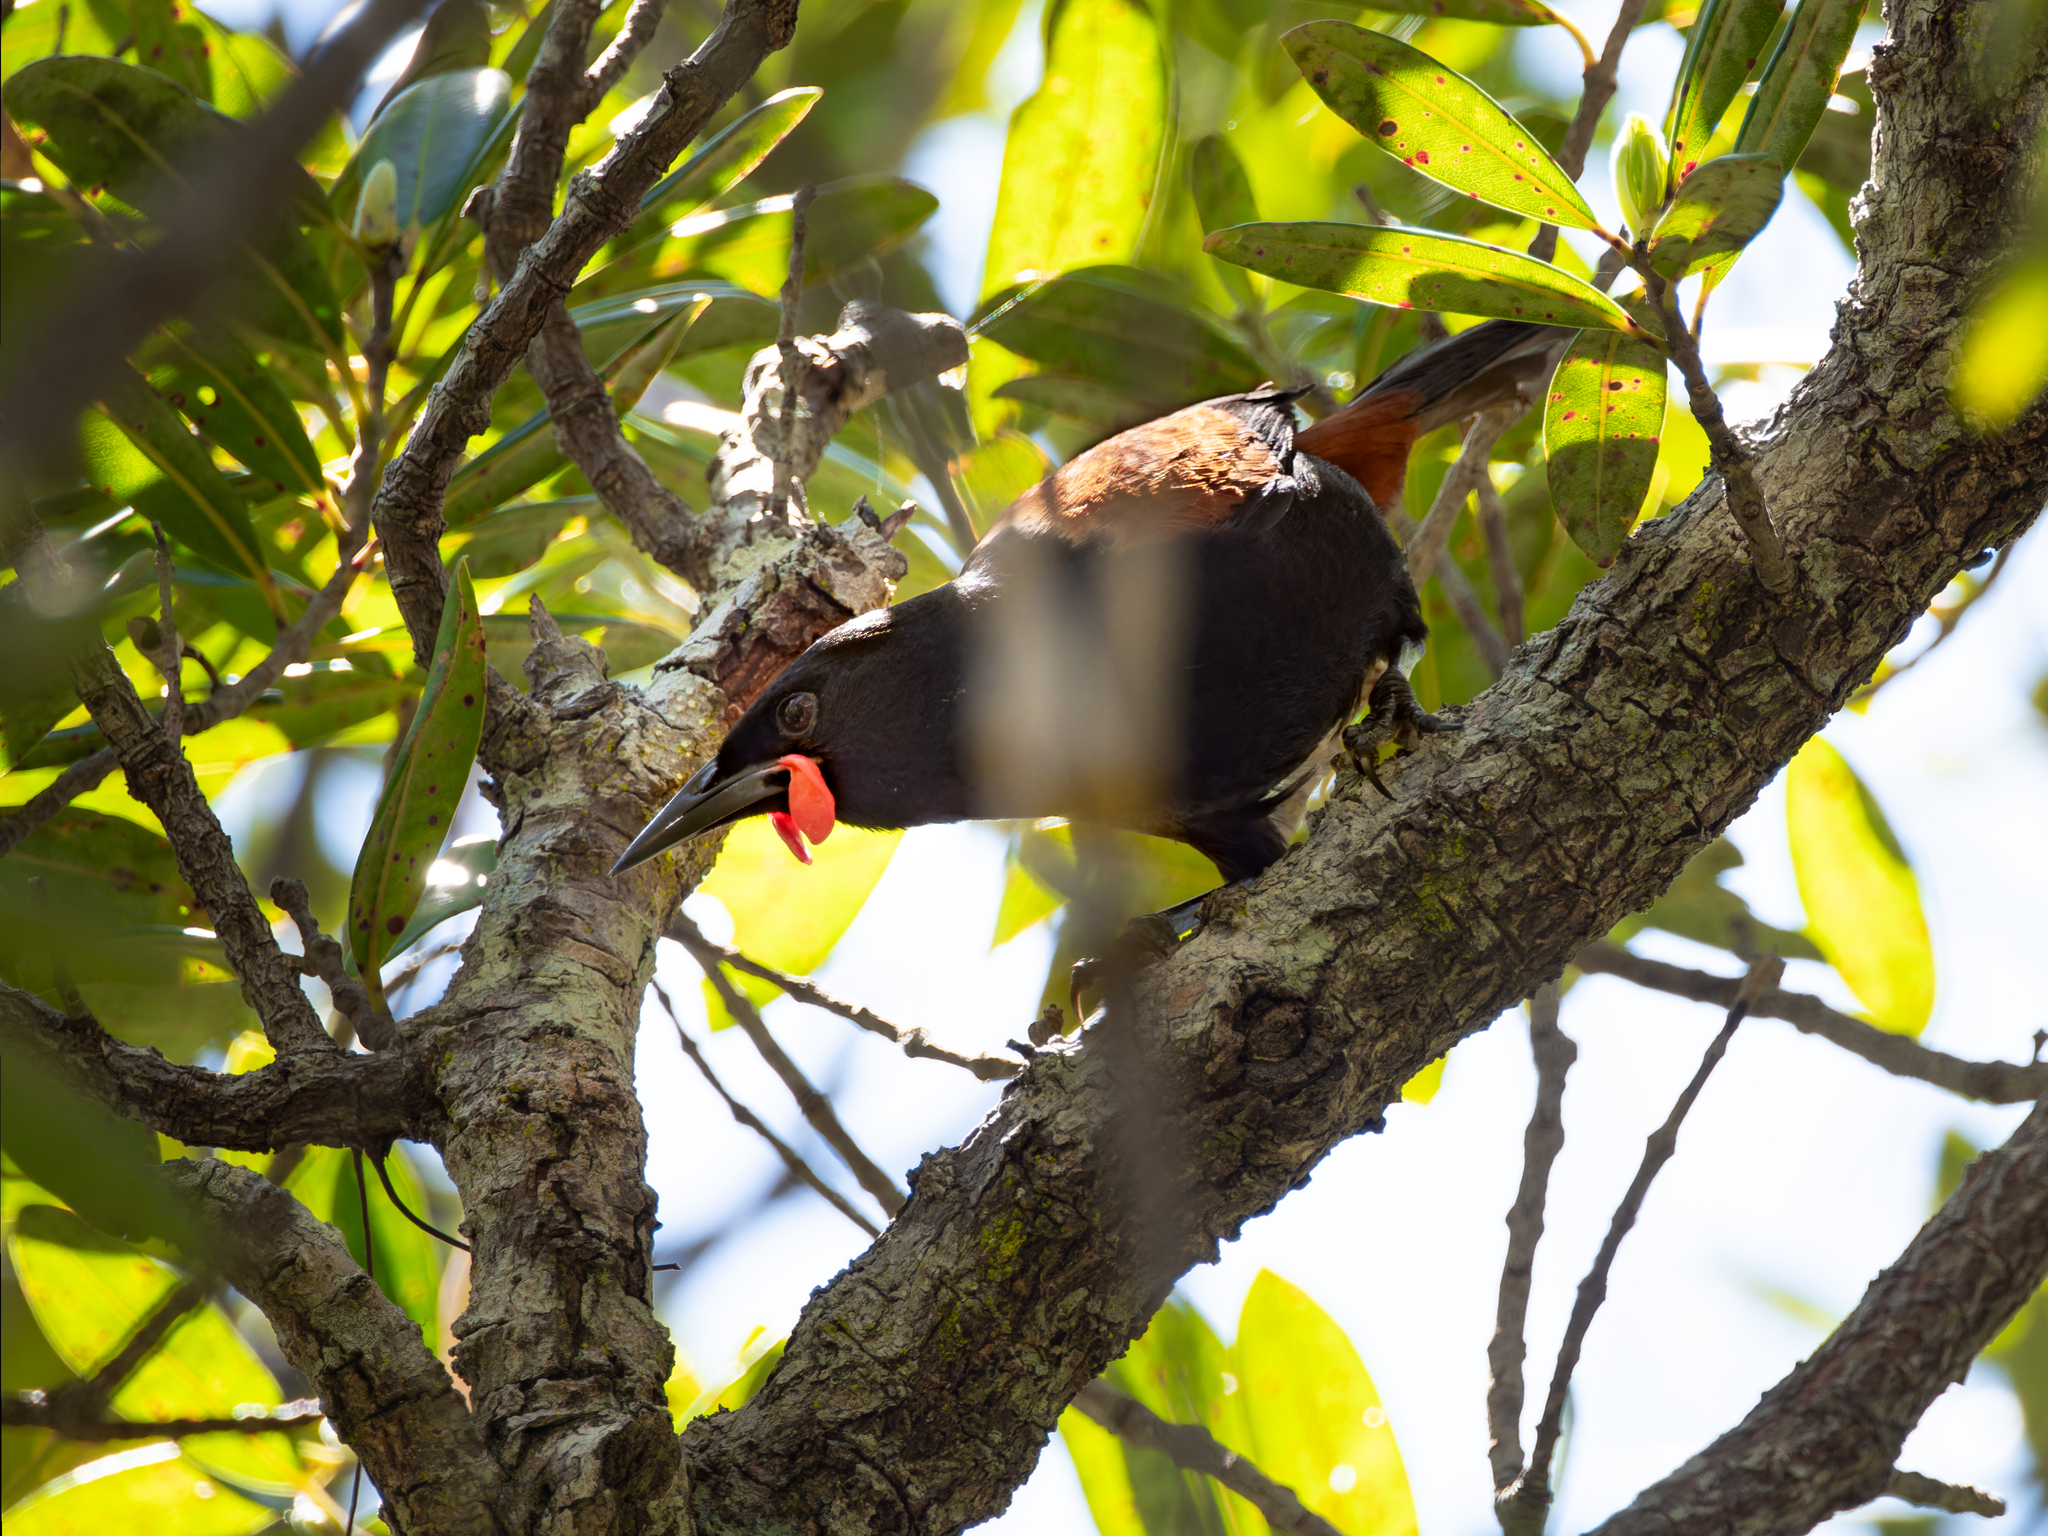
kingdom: Animalia
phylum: Chordata
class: Aves
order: Passeriformes
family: Callaeatidae
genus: Philesturnus
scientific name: Philesturnus carunculatus
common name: South island saddleback
